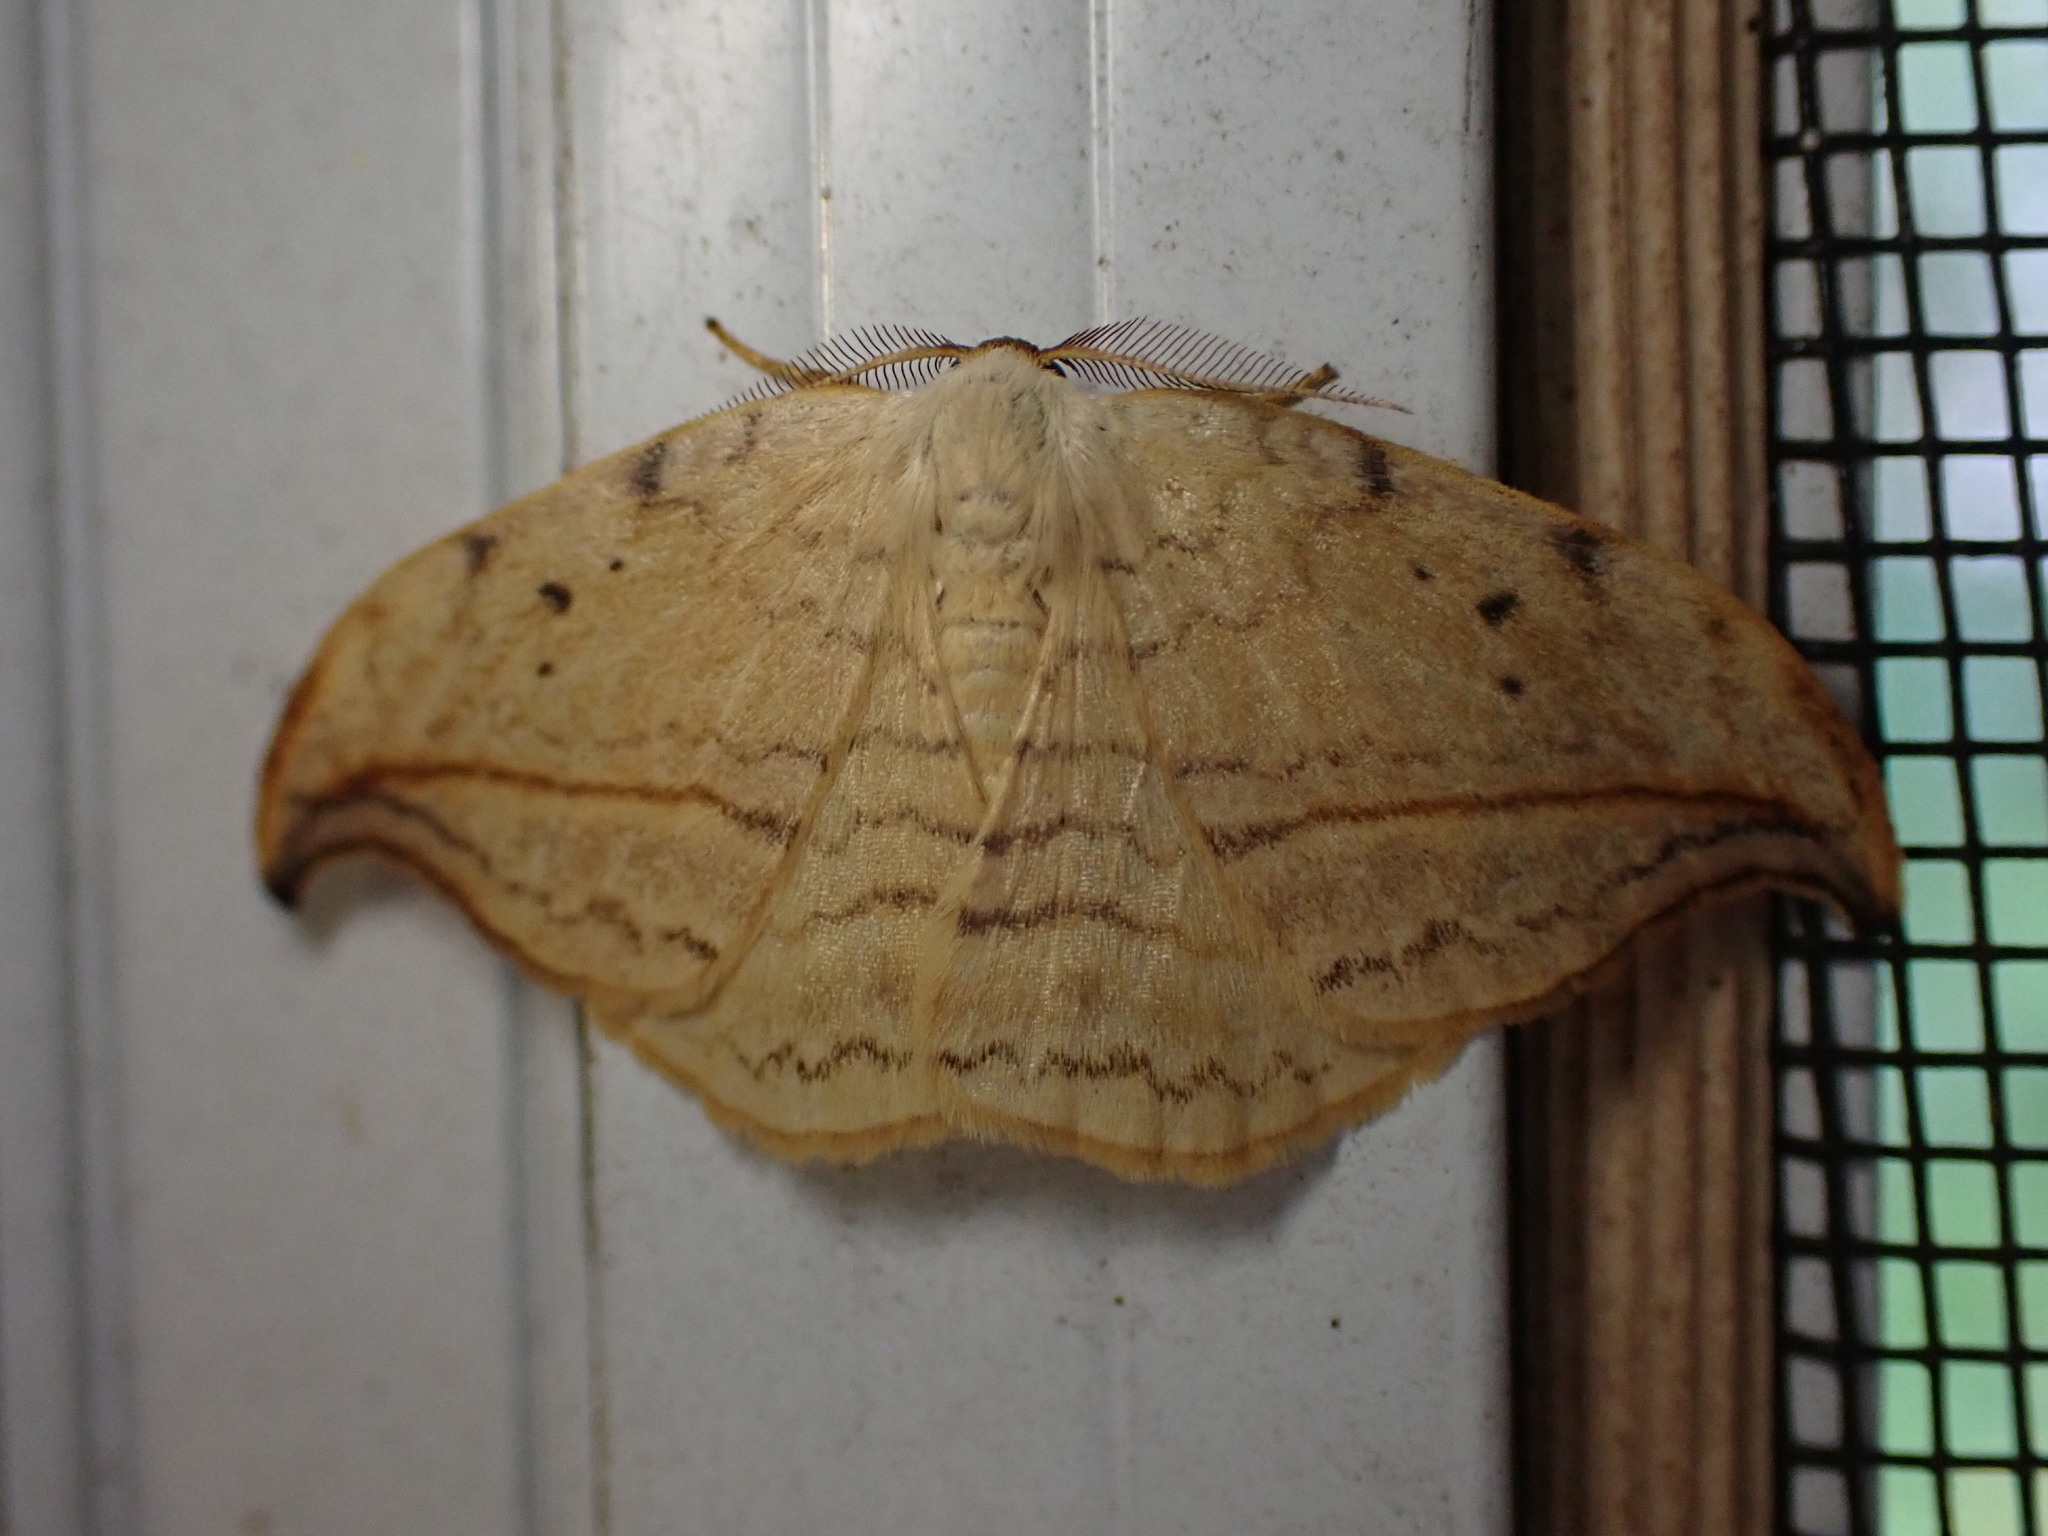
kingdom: Animalia
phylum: Arthropoda
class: Insecta
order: Lepidoptera
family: Drepanidae
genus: Drepana
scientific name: Drepana arcuata
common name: Arched hooktip moth
